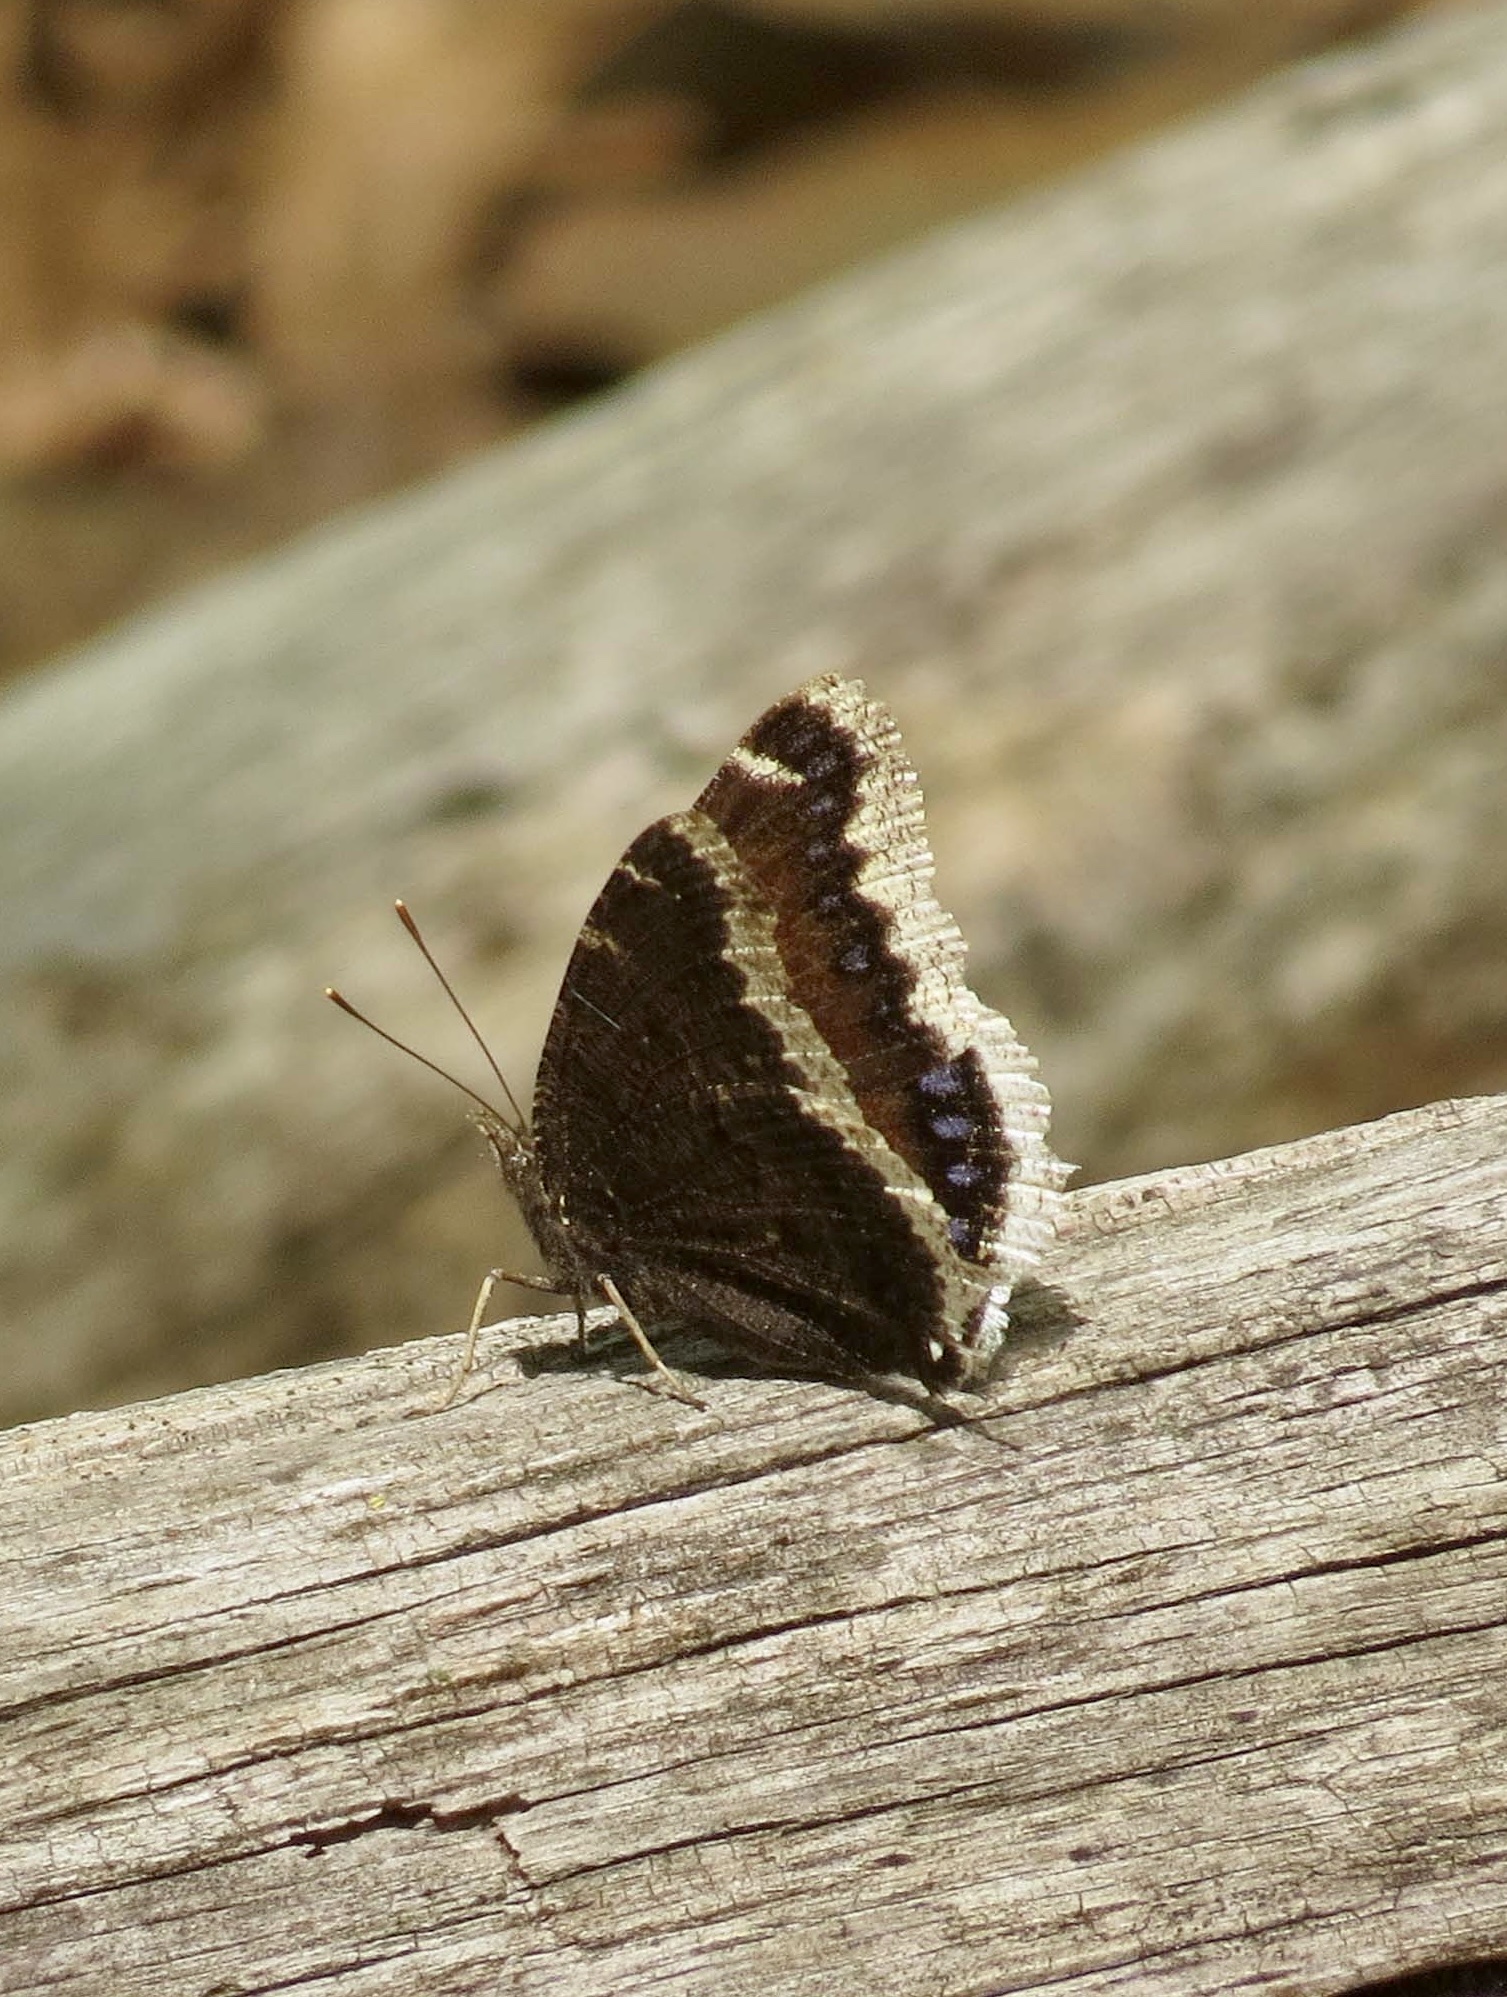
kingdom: Animalia
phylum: Arthropoda
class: Insecta
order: Lepidoptera
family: Nymphalidae
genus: Nymphalis
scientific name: Nymphalis antiopa
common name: Camberwell beauty
